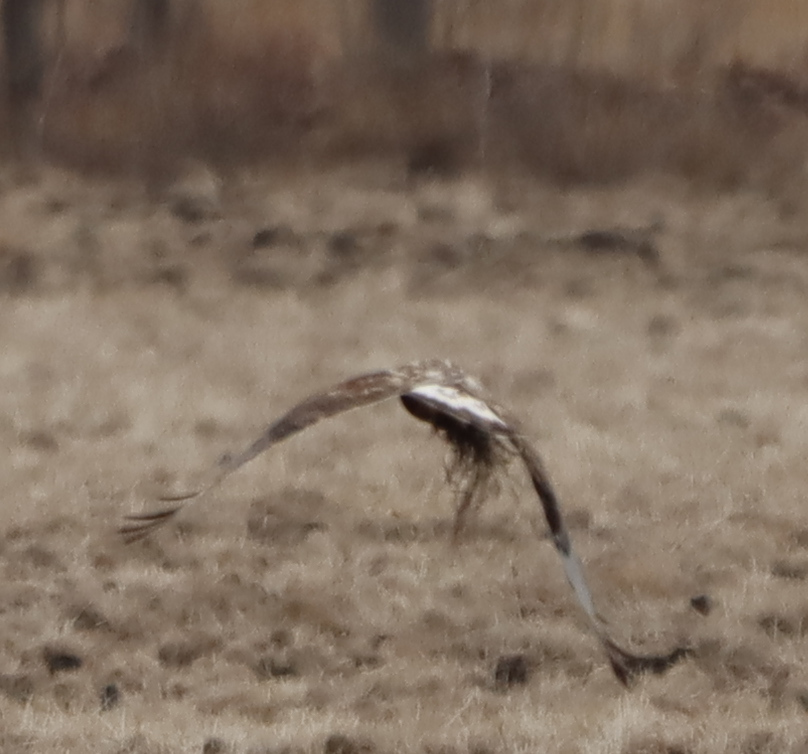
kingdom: Animalia
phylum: Chordata
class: Aves
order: Accipitriformes
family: Accipitridae
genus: Buteo
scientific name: Buteo lagopus
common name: Rough-legged buzzard
